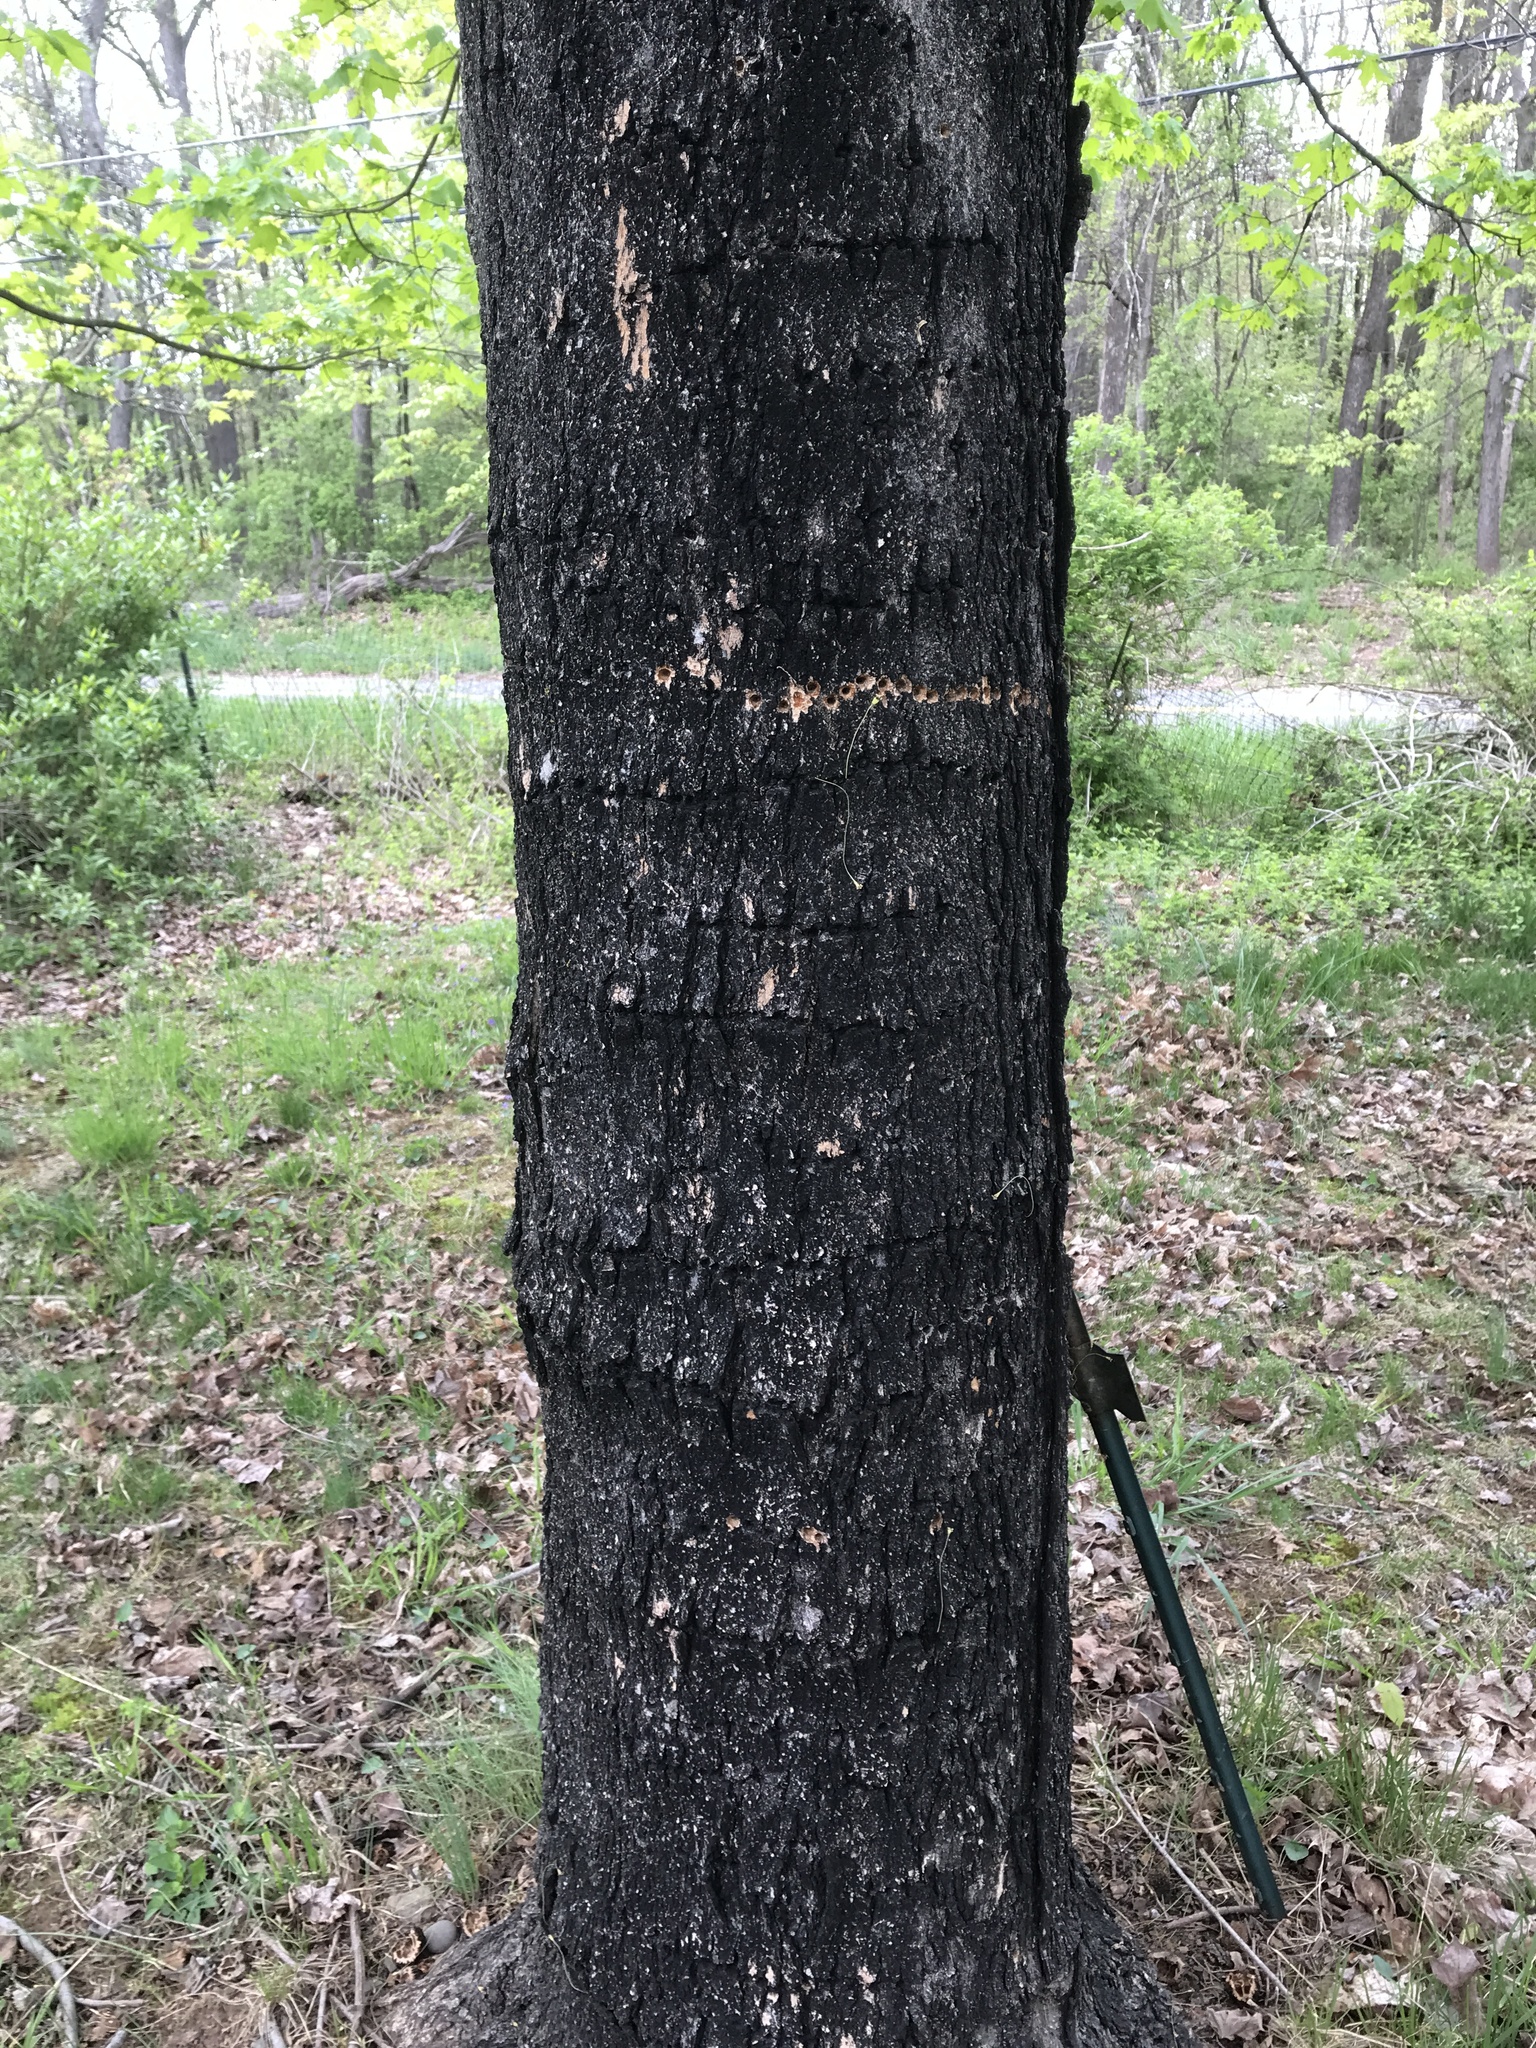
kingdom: Animalia
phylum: Chordata
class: Aves
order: Piciformes
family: Picidae
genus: Sphyrapicus
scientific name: Sphyrapicus varius
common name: Yellow-bellied sapsucker
